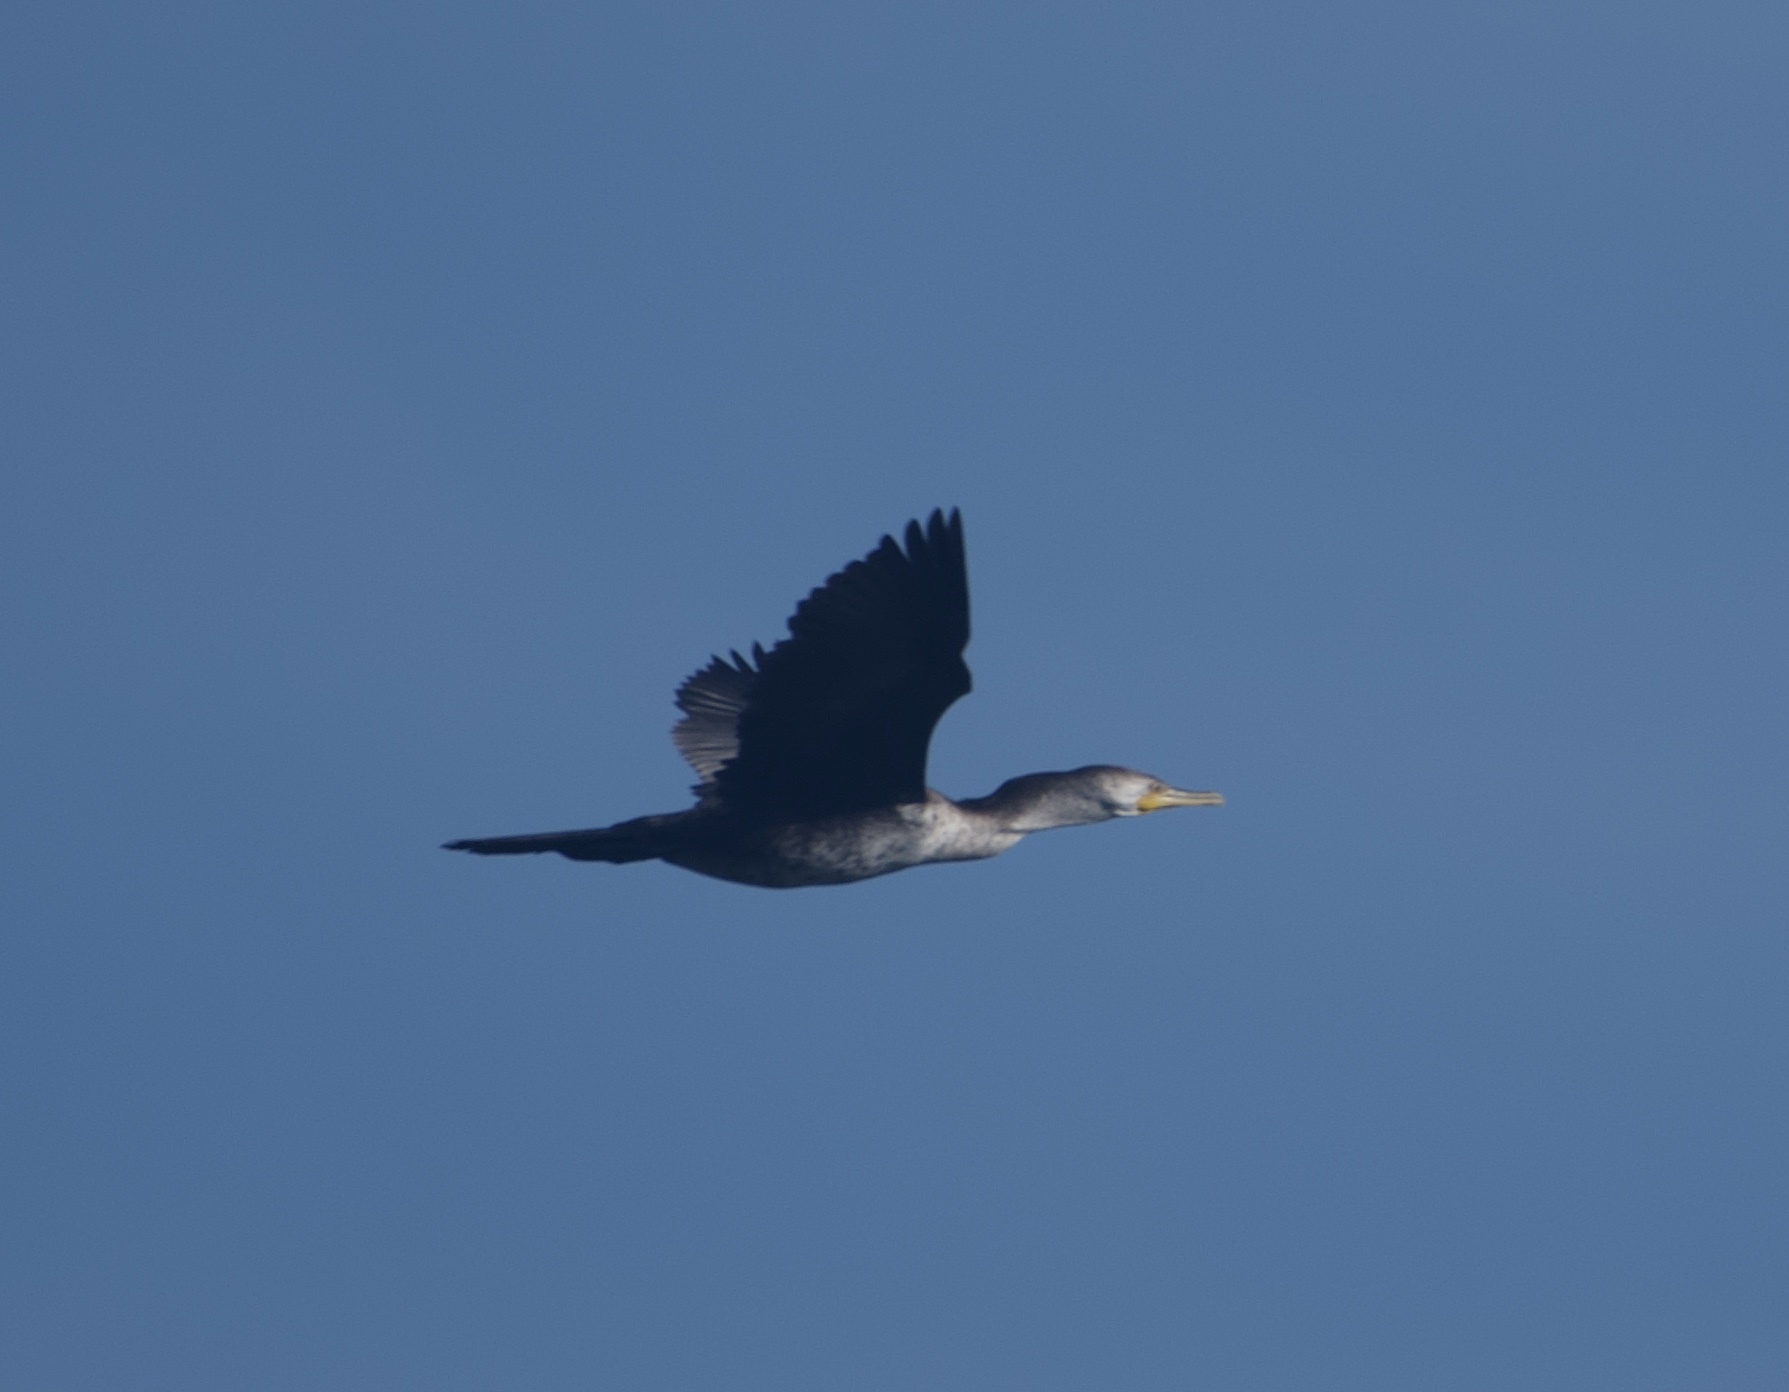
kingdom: Animalia
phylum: Chordata
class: Aves
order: Suliformes
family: Phalacrocoracidae
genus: Phalacrocorax
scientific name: Phalacrocorax brasilianus
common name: Neotropic cormorant
